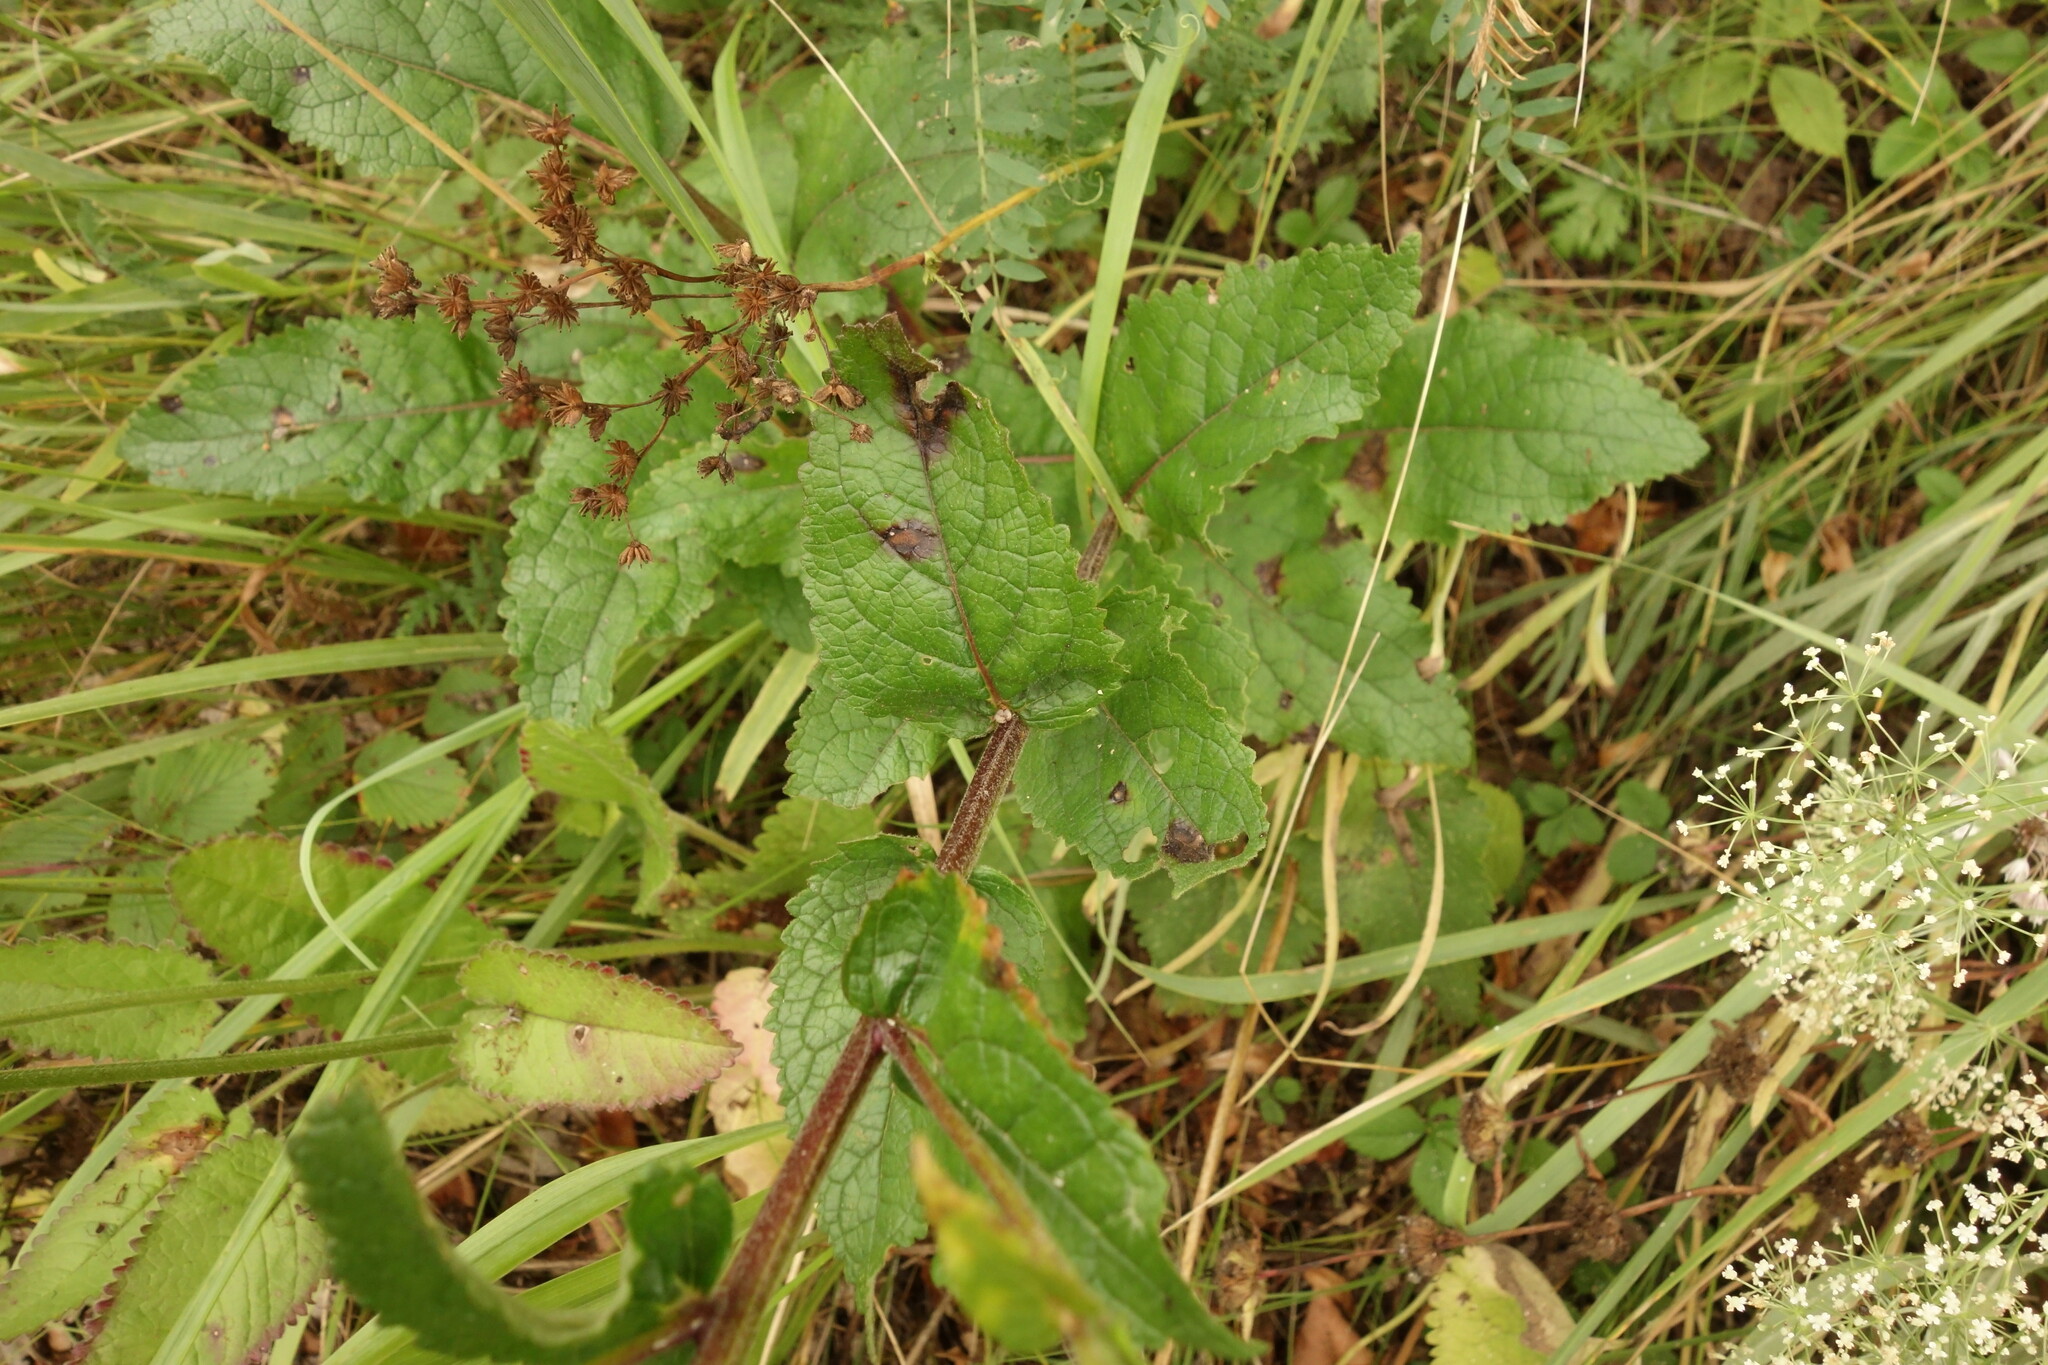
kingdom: Plantae
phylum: Tracheophyta
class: Magnoliopsida
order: Lamiales
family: Scrophulariaceae
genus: Verbascum
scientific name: Verbascum chaixii
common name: Nettle-leaved mullein
